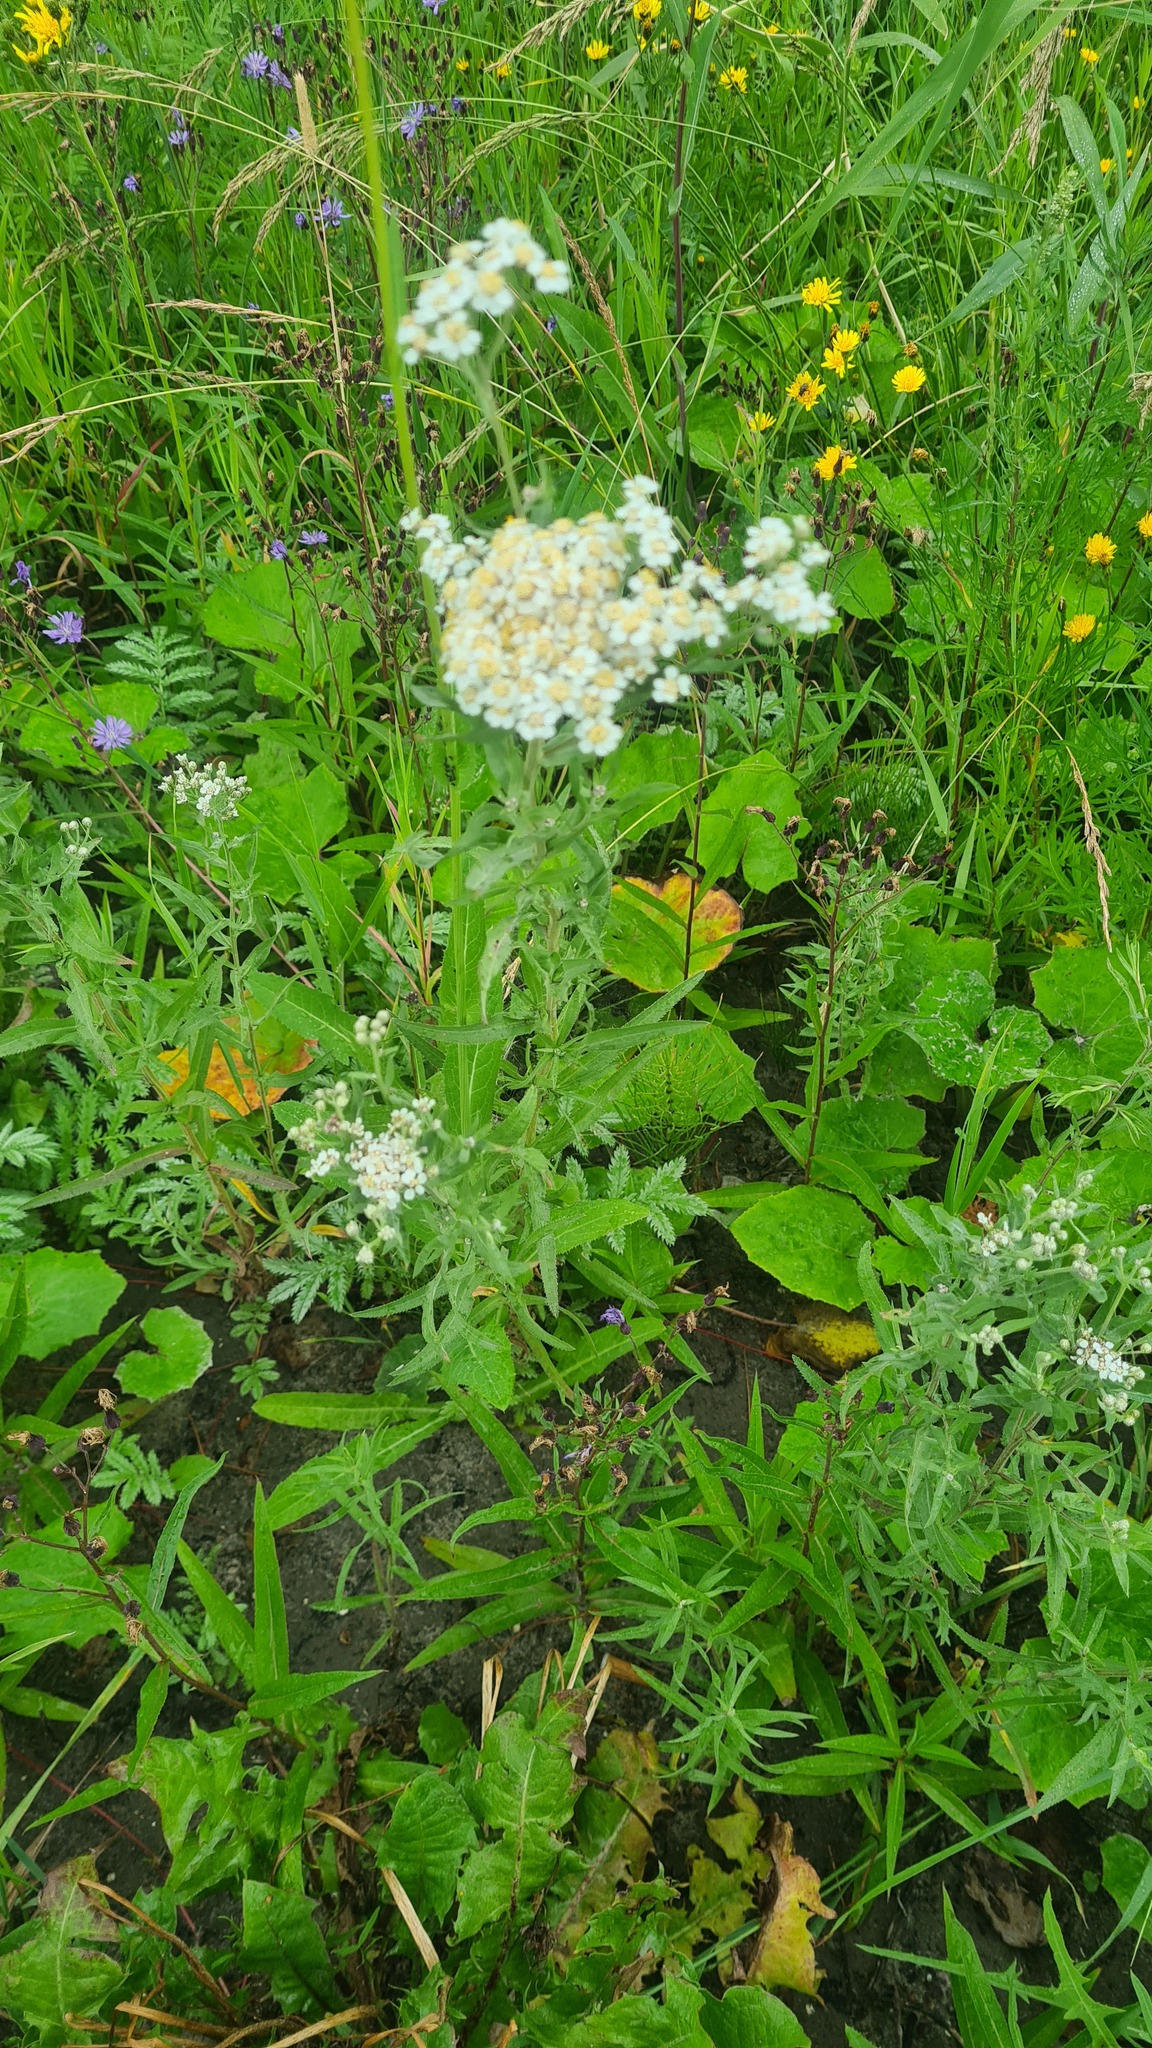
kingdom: Plantae
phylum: Tracheophyta
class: Magnoliopsida
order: Asterales
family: Asteraceae
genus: Achillea
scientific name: Achillea salicifolia
